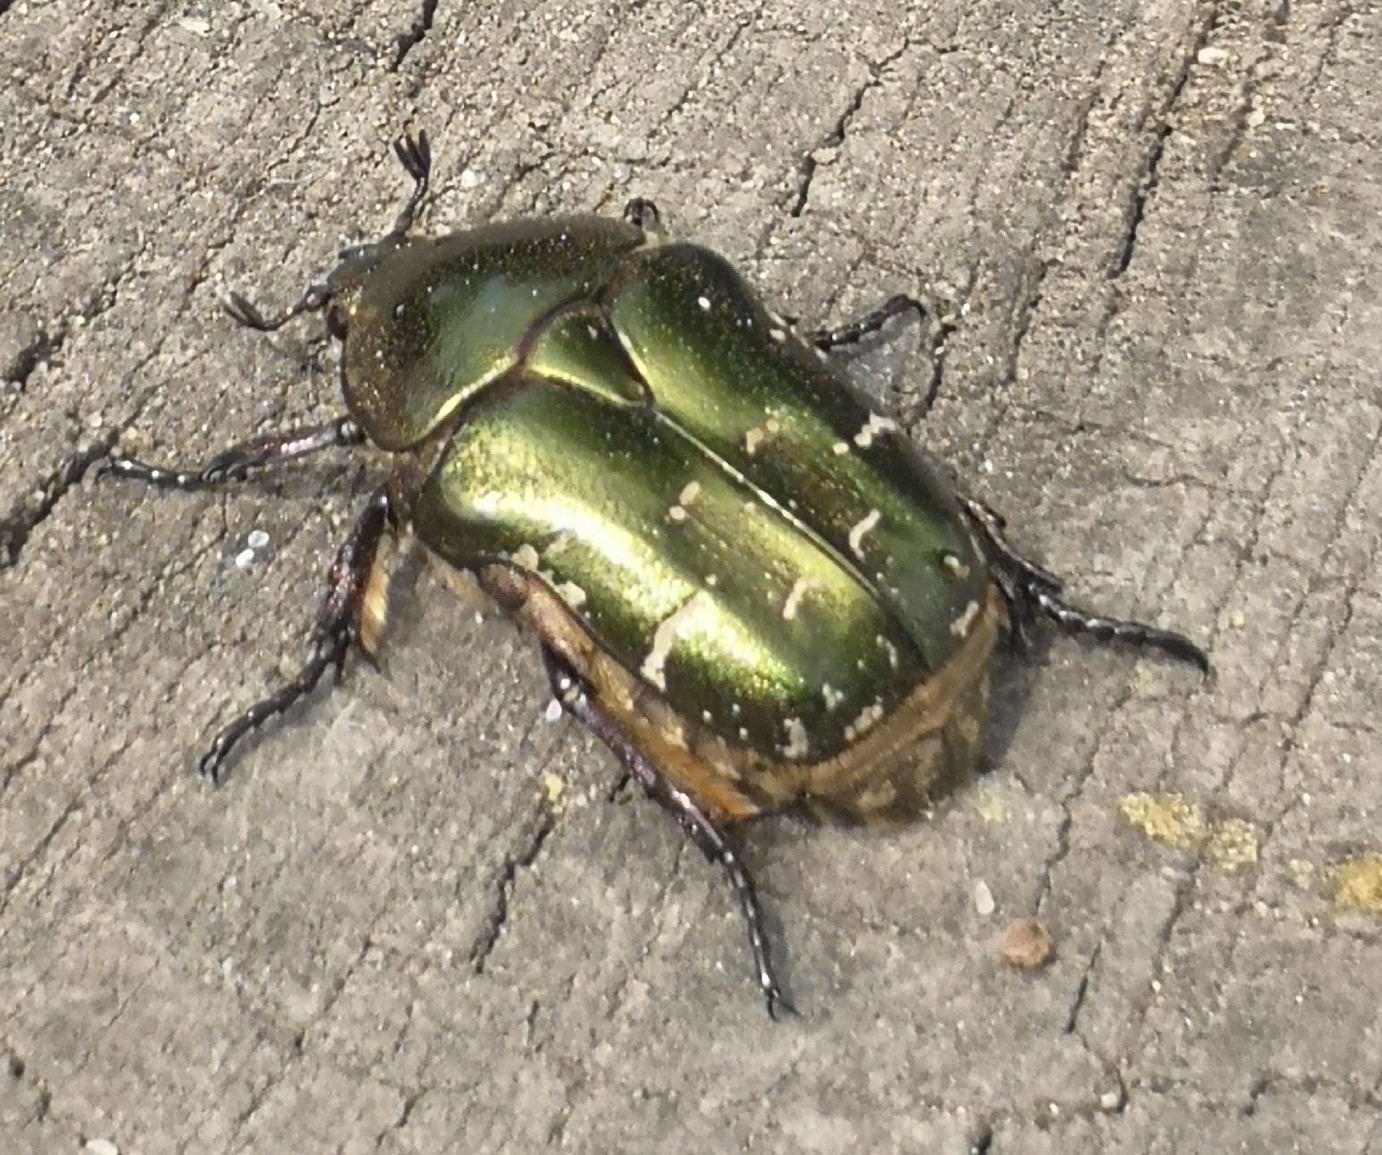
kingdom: Animalia
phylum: Arthropoda
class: Insecta
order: Coleoptera
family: Scarabaeidae
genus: Protaetia
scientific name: Protaetia cuprea
